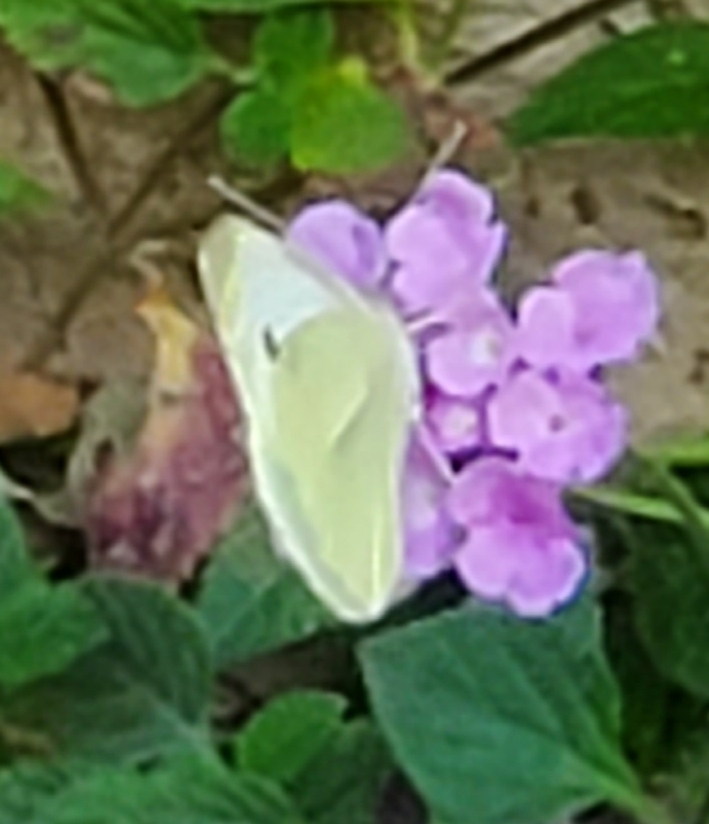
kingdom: Animalia
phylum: Arthropoda
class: Insecta
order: Lepidoptera
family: Pieridae
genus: Pieris
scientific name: Pieris rapae
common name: Small white
